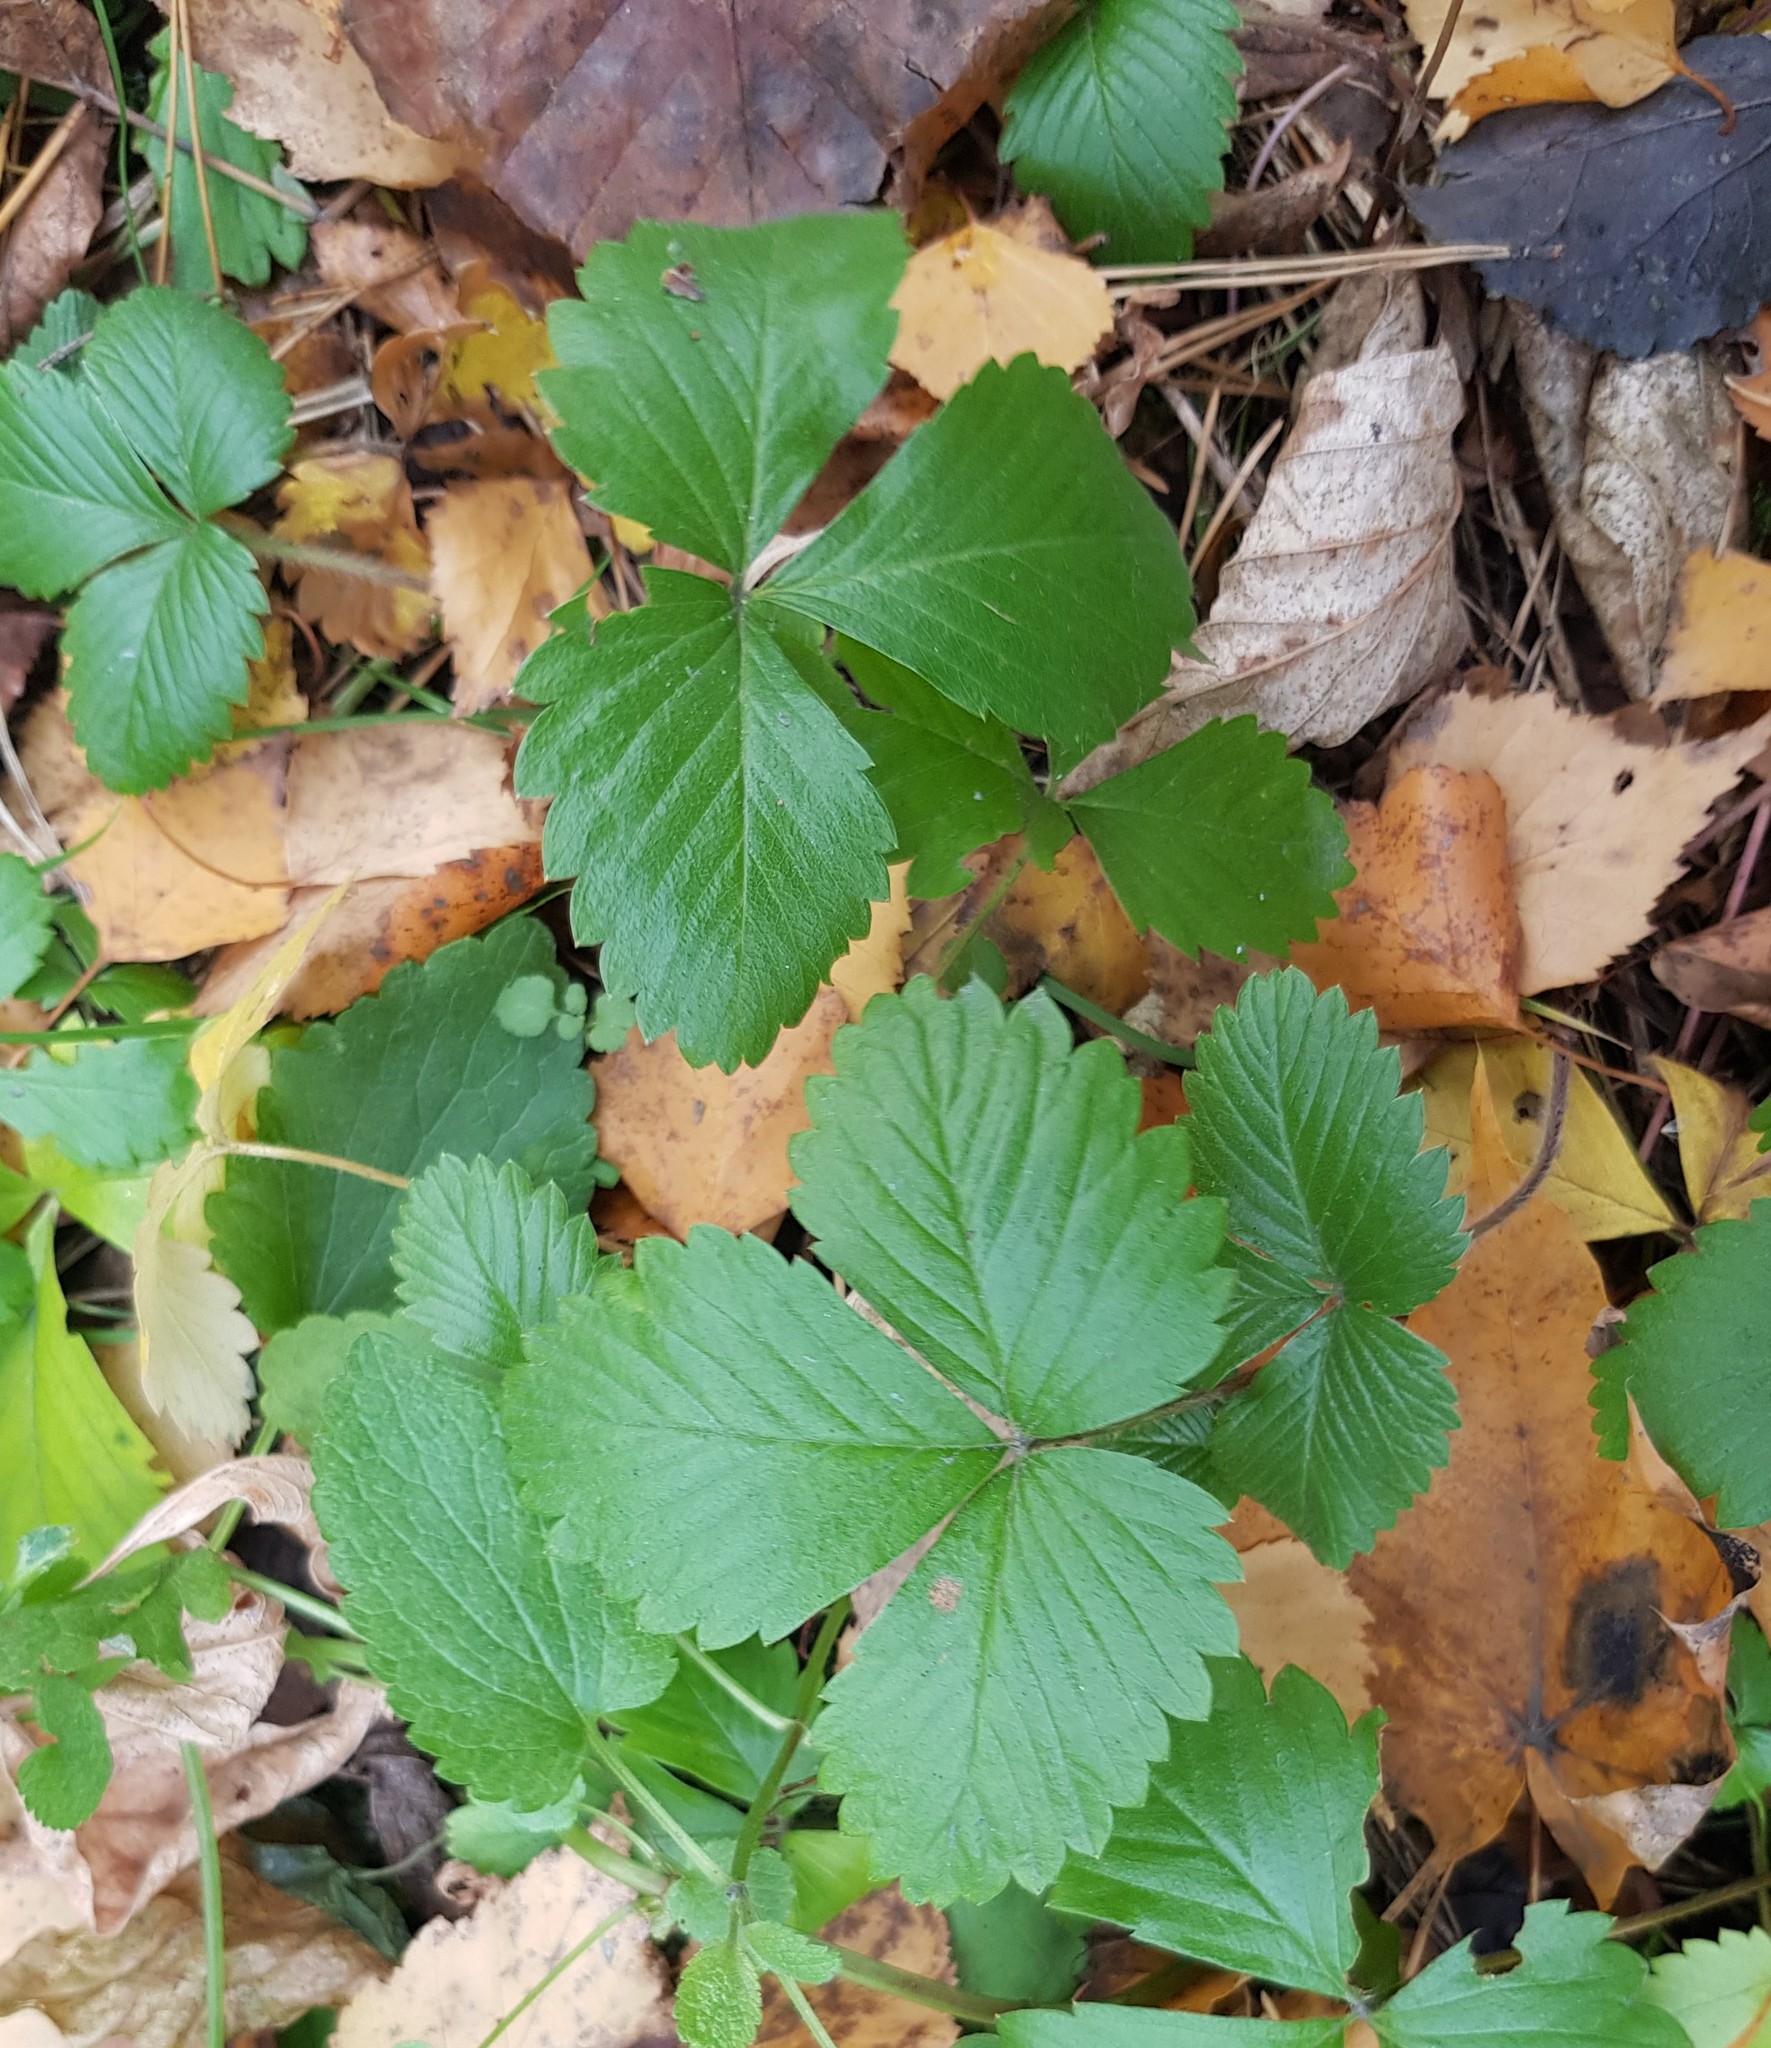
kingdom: Plantae
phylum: Tracheophyta
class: Magnoliopsida
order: Rosales
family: Rosaceae
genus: Fragaria
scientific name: Fragaria vesca
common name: Wild strawberry
